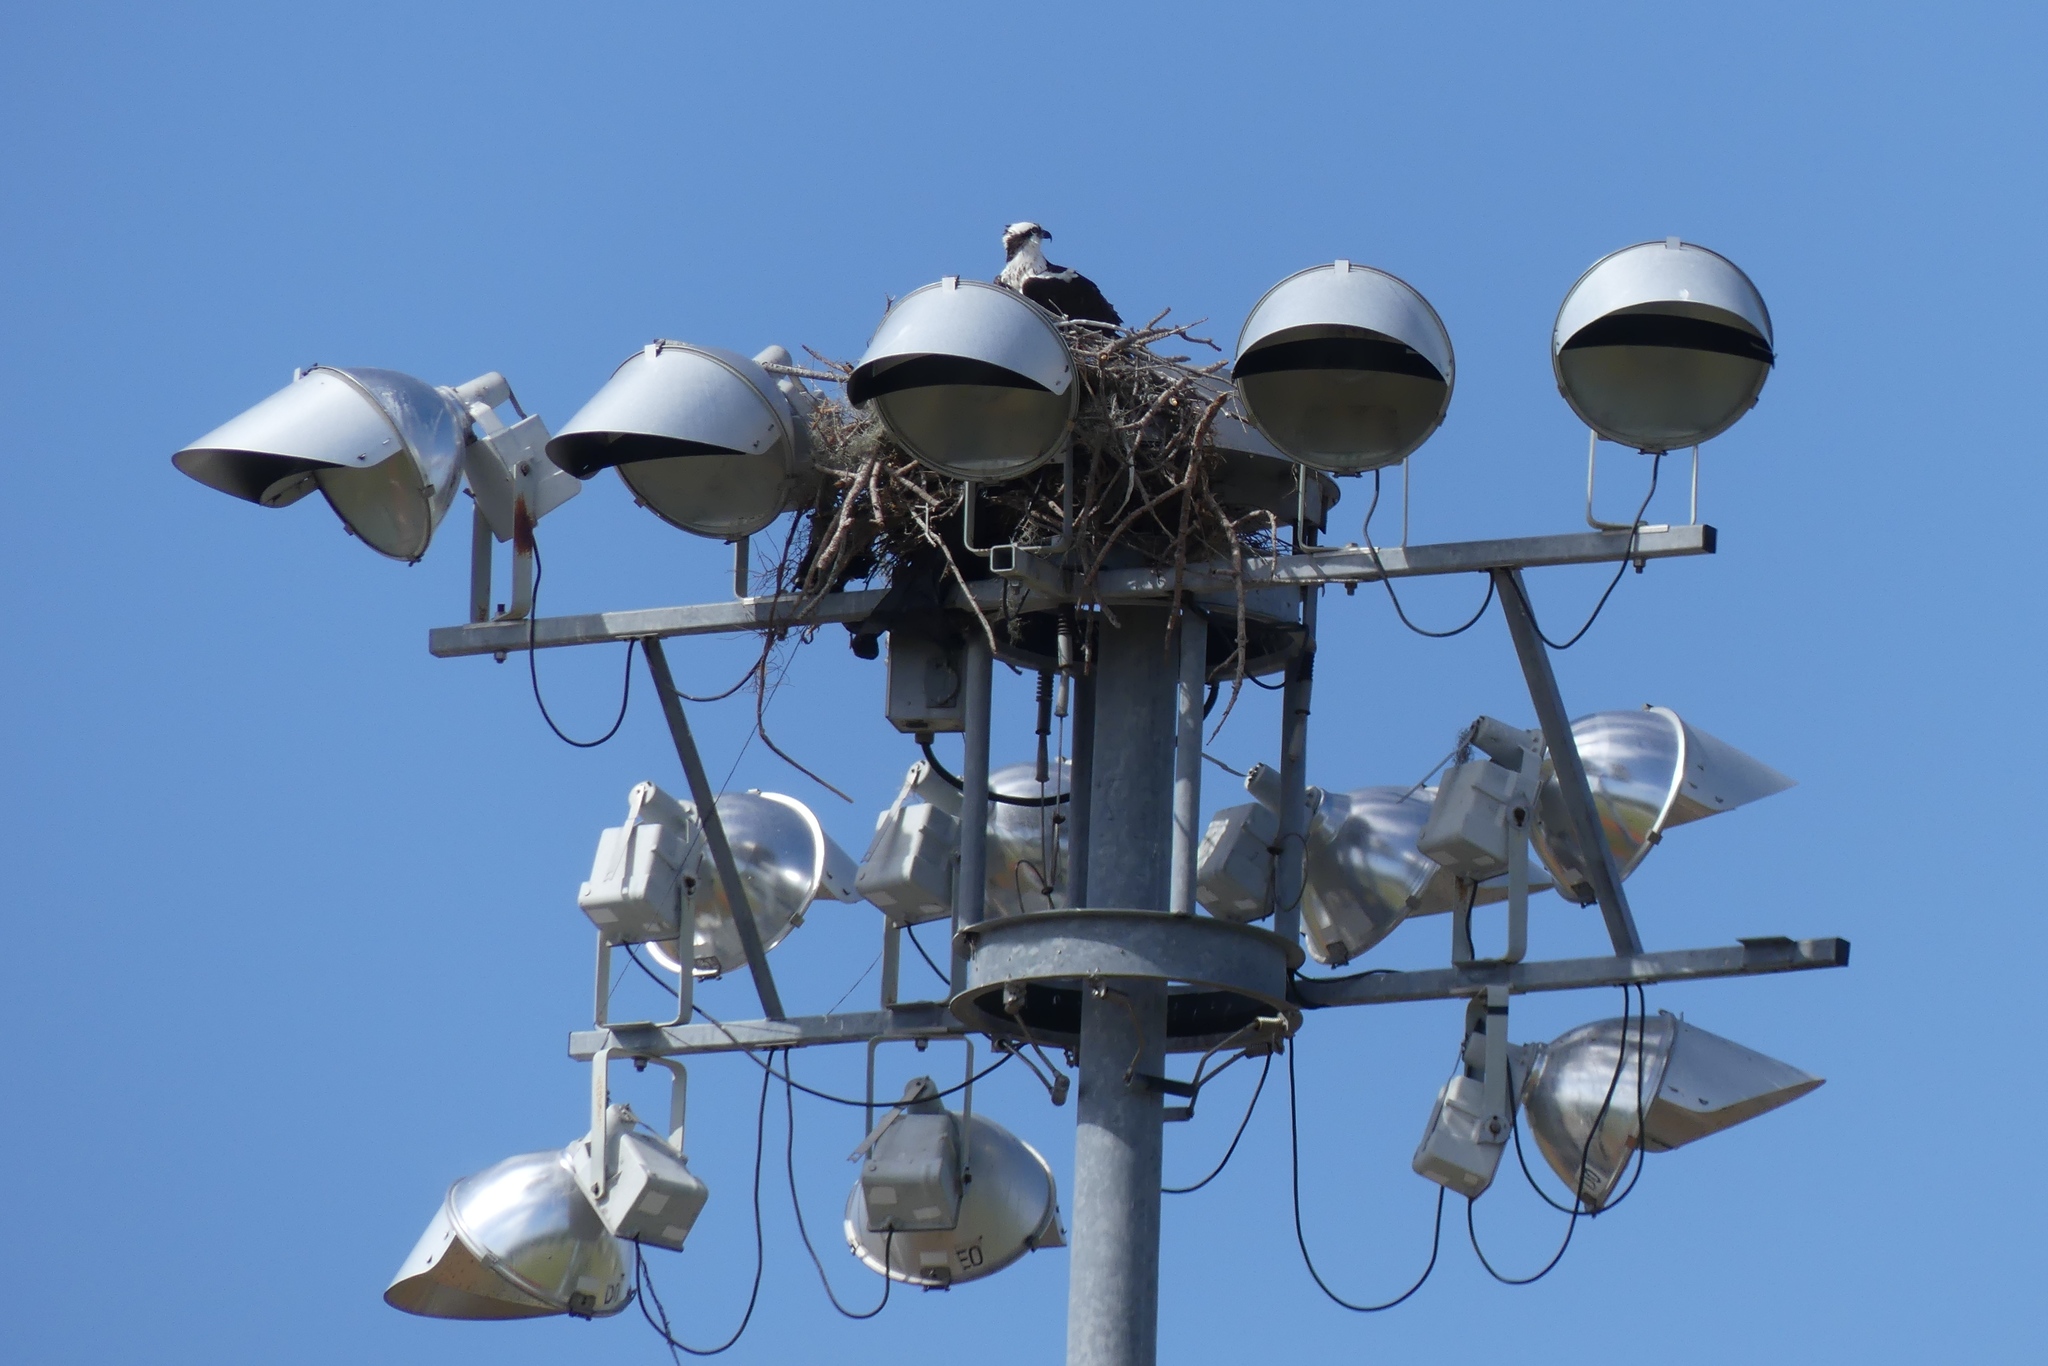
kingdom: Animalia
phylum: Chordata
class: Aves
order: Accipitriformes
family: Pandionidae
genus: Pandion
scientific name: Pandion haliaetus
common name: Osprey
